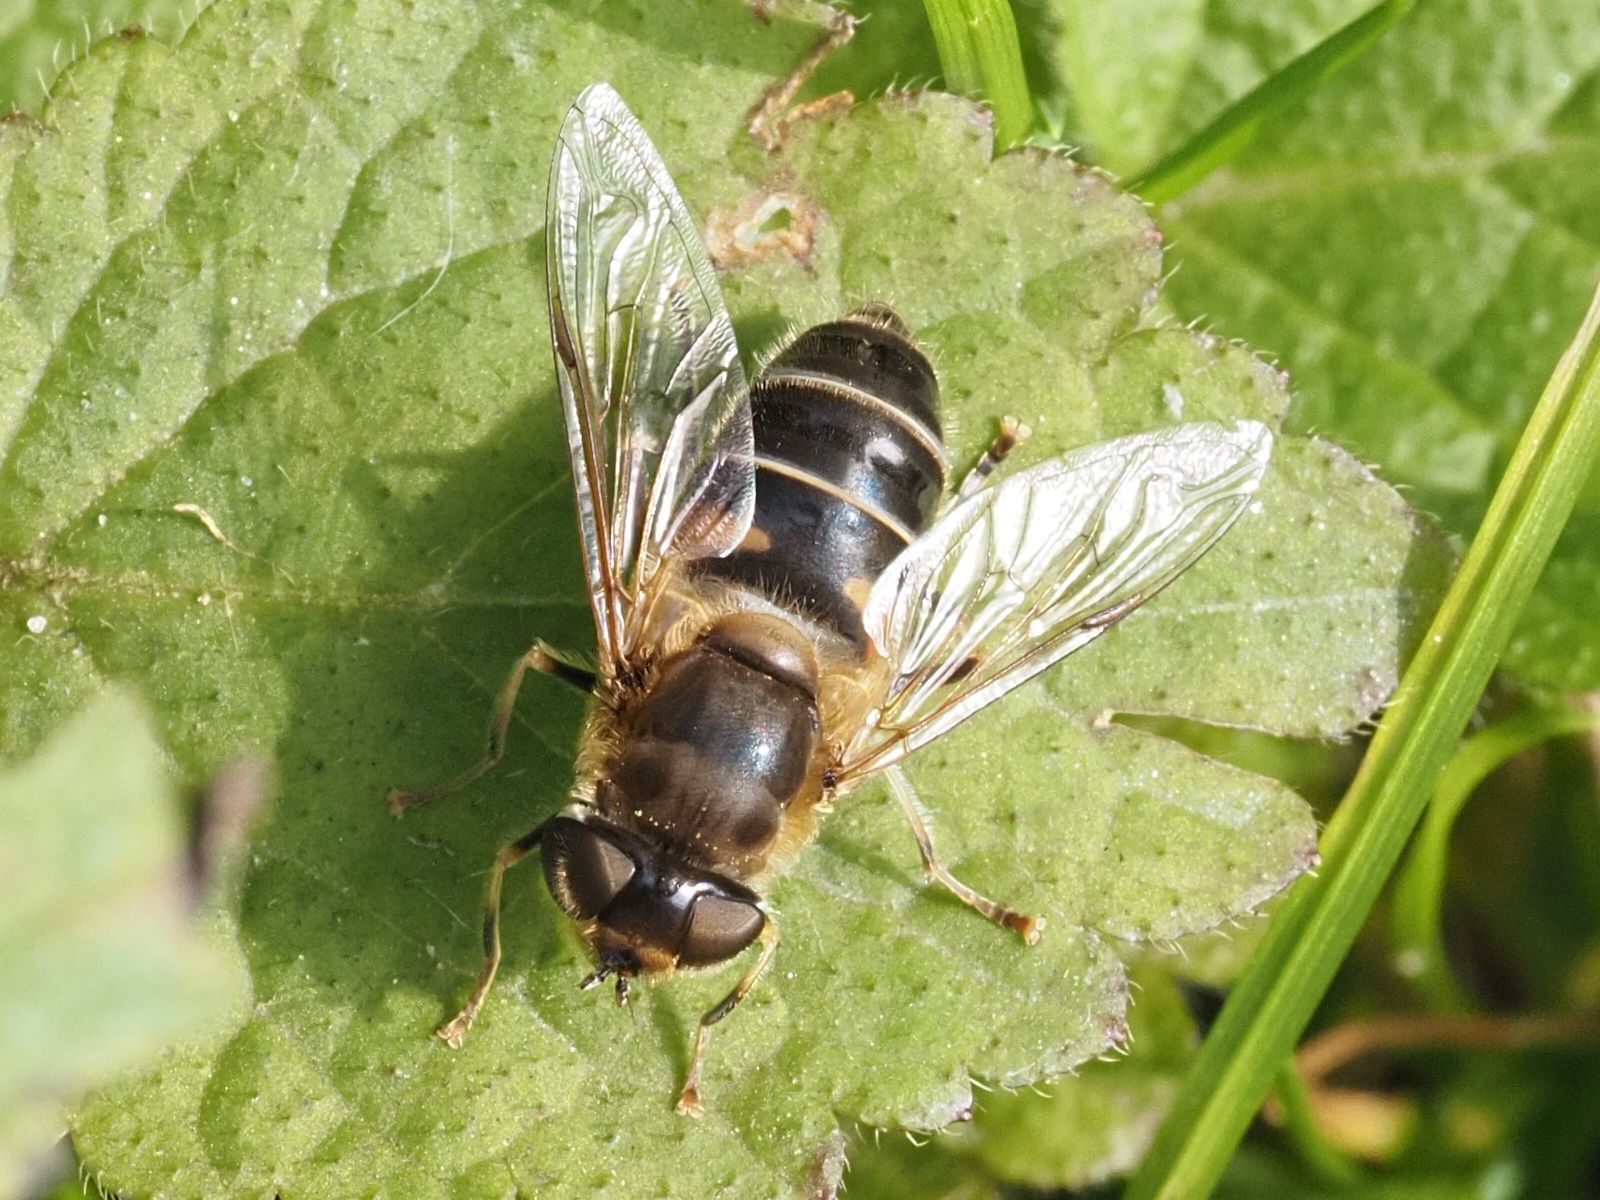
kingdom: Animalia
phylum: Arthropoda
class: Insecta
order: Diptera
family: Syrphidae
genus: Eristalis
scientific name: Eristalis pertinax
